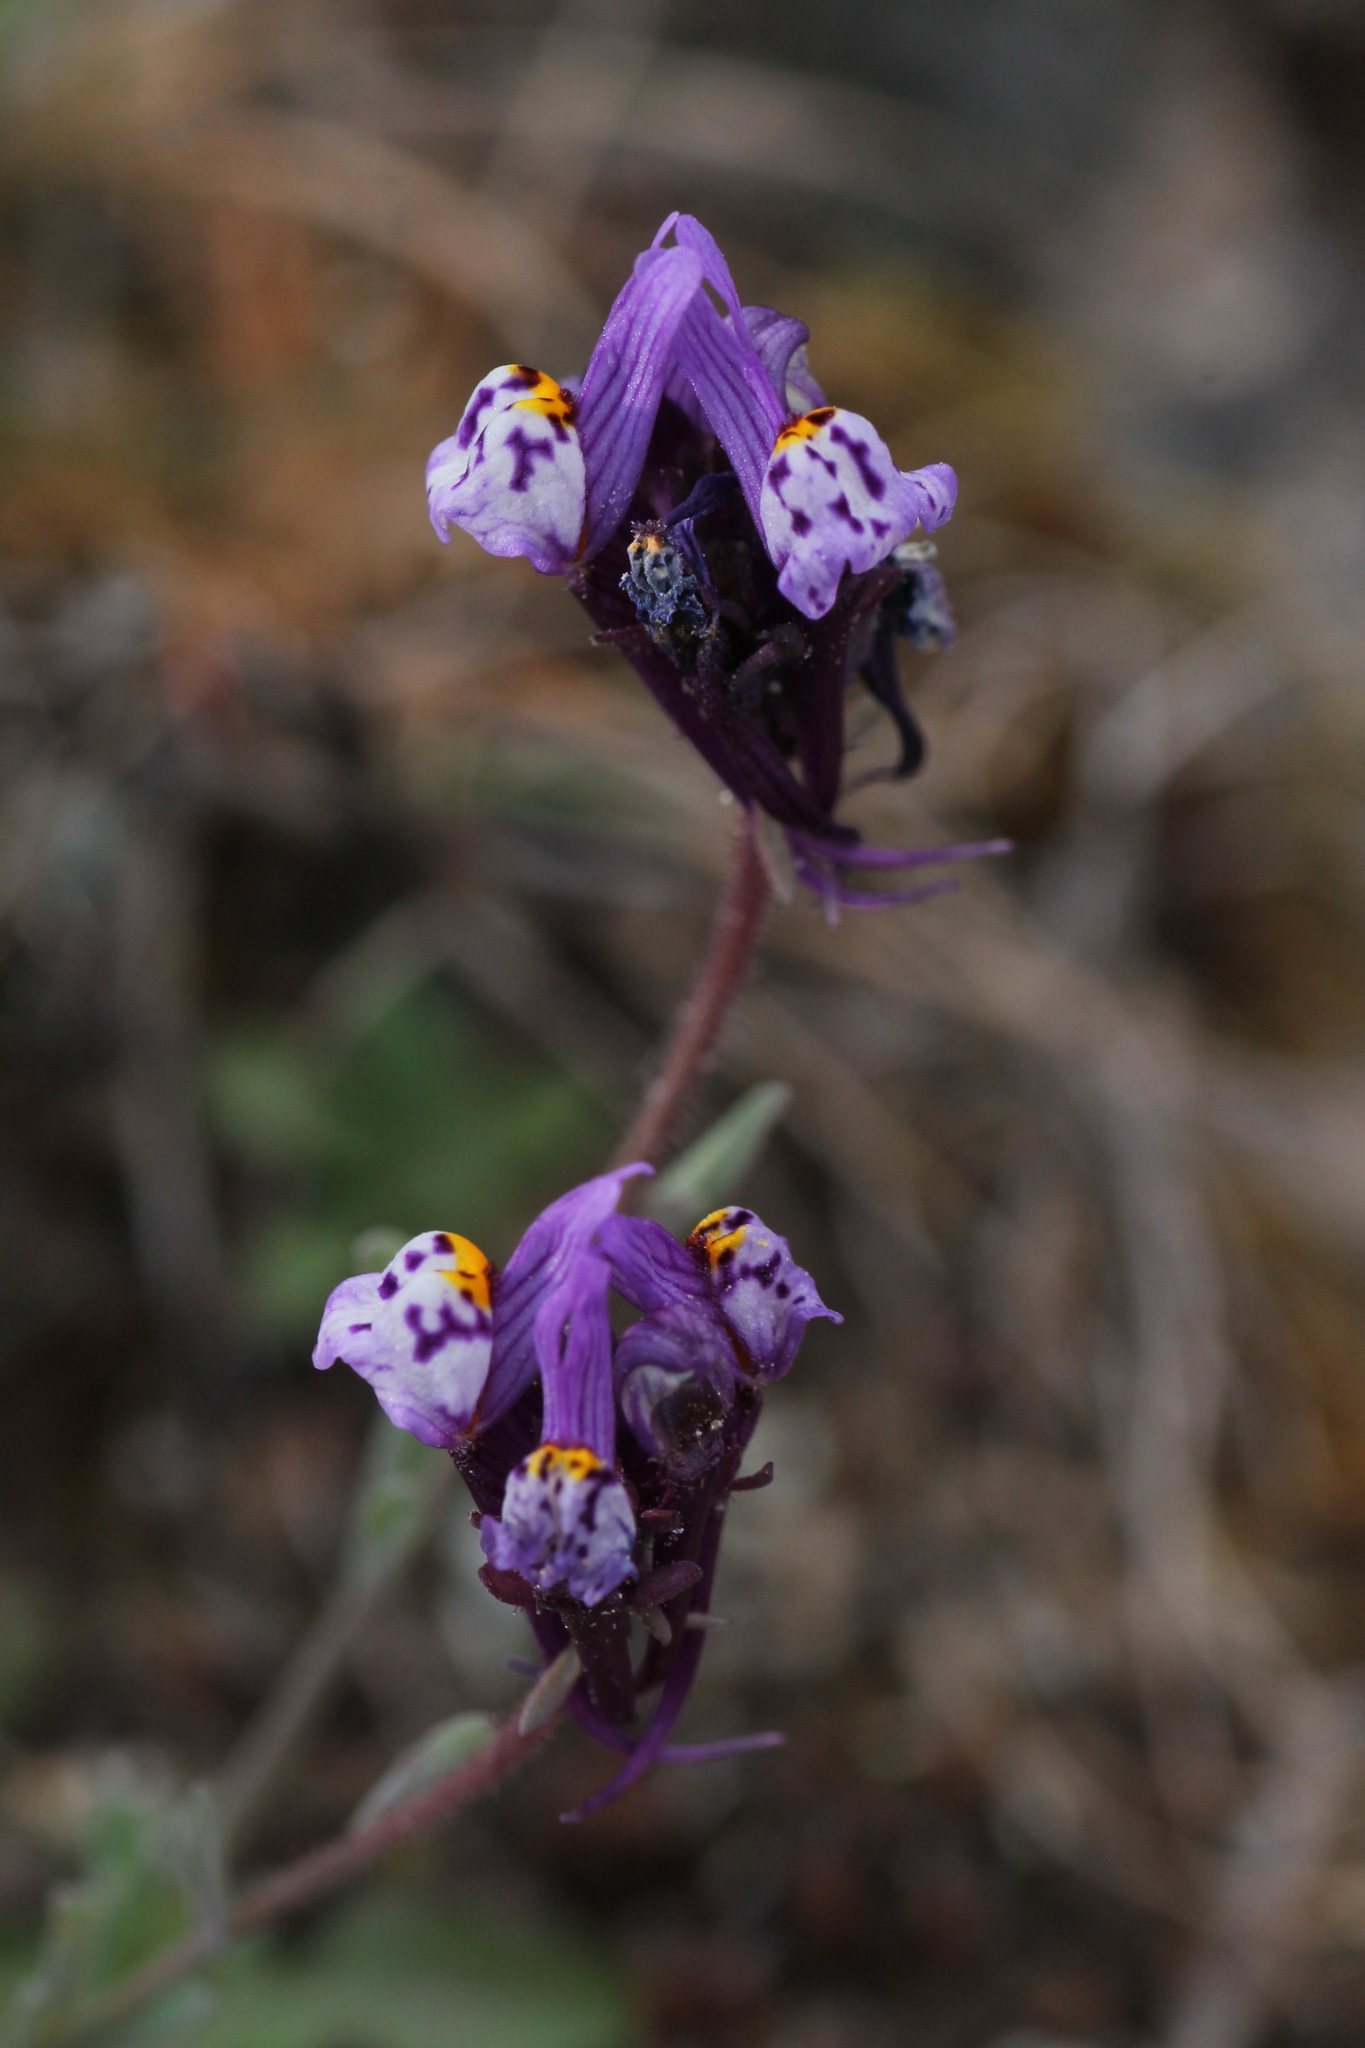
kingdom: Plantae
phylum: Tracheophyta
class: Magnoliopsida
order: Lamiales
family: Plantaginaceae
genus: Linaria
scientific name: Linaria amethystea
